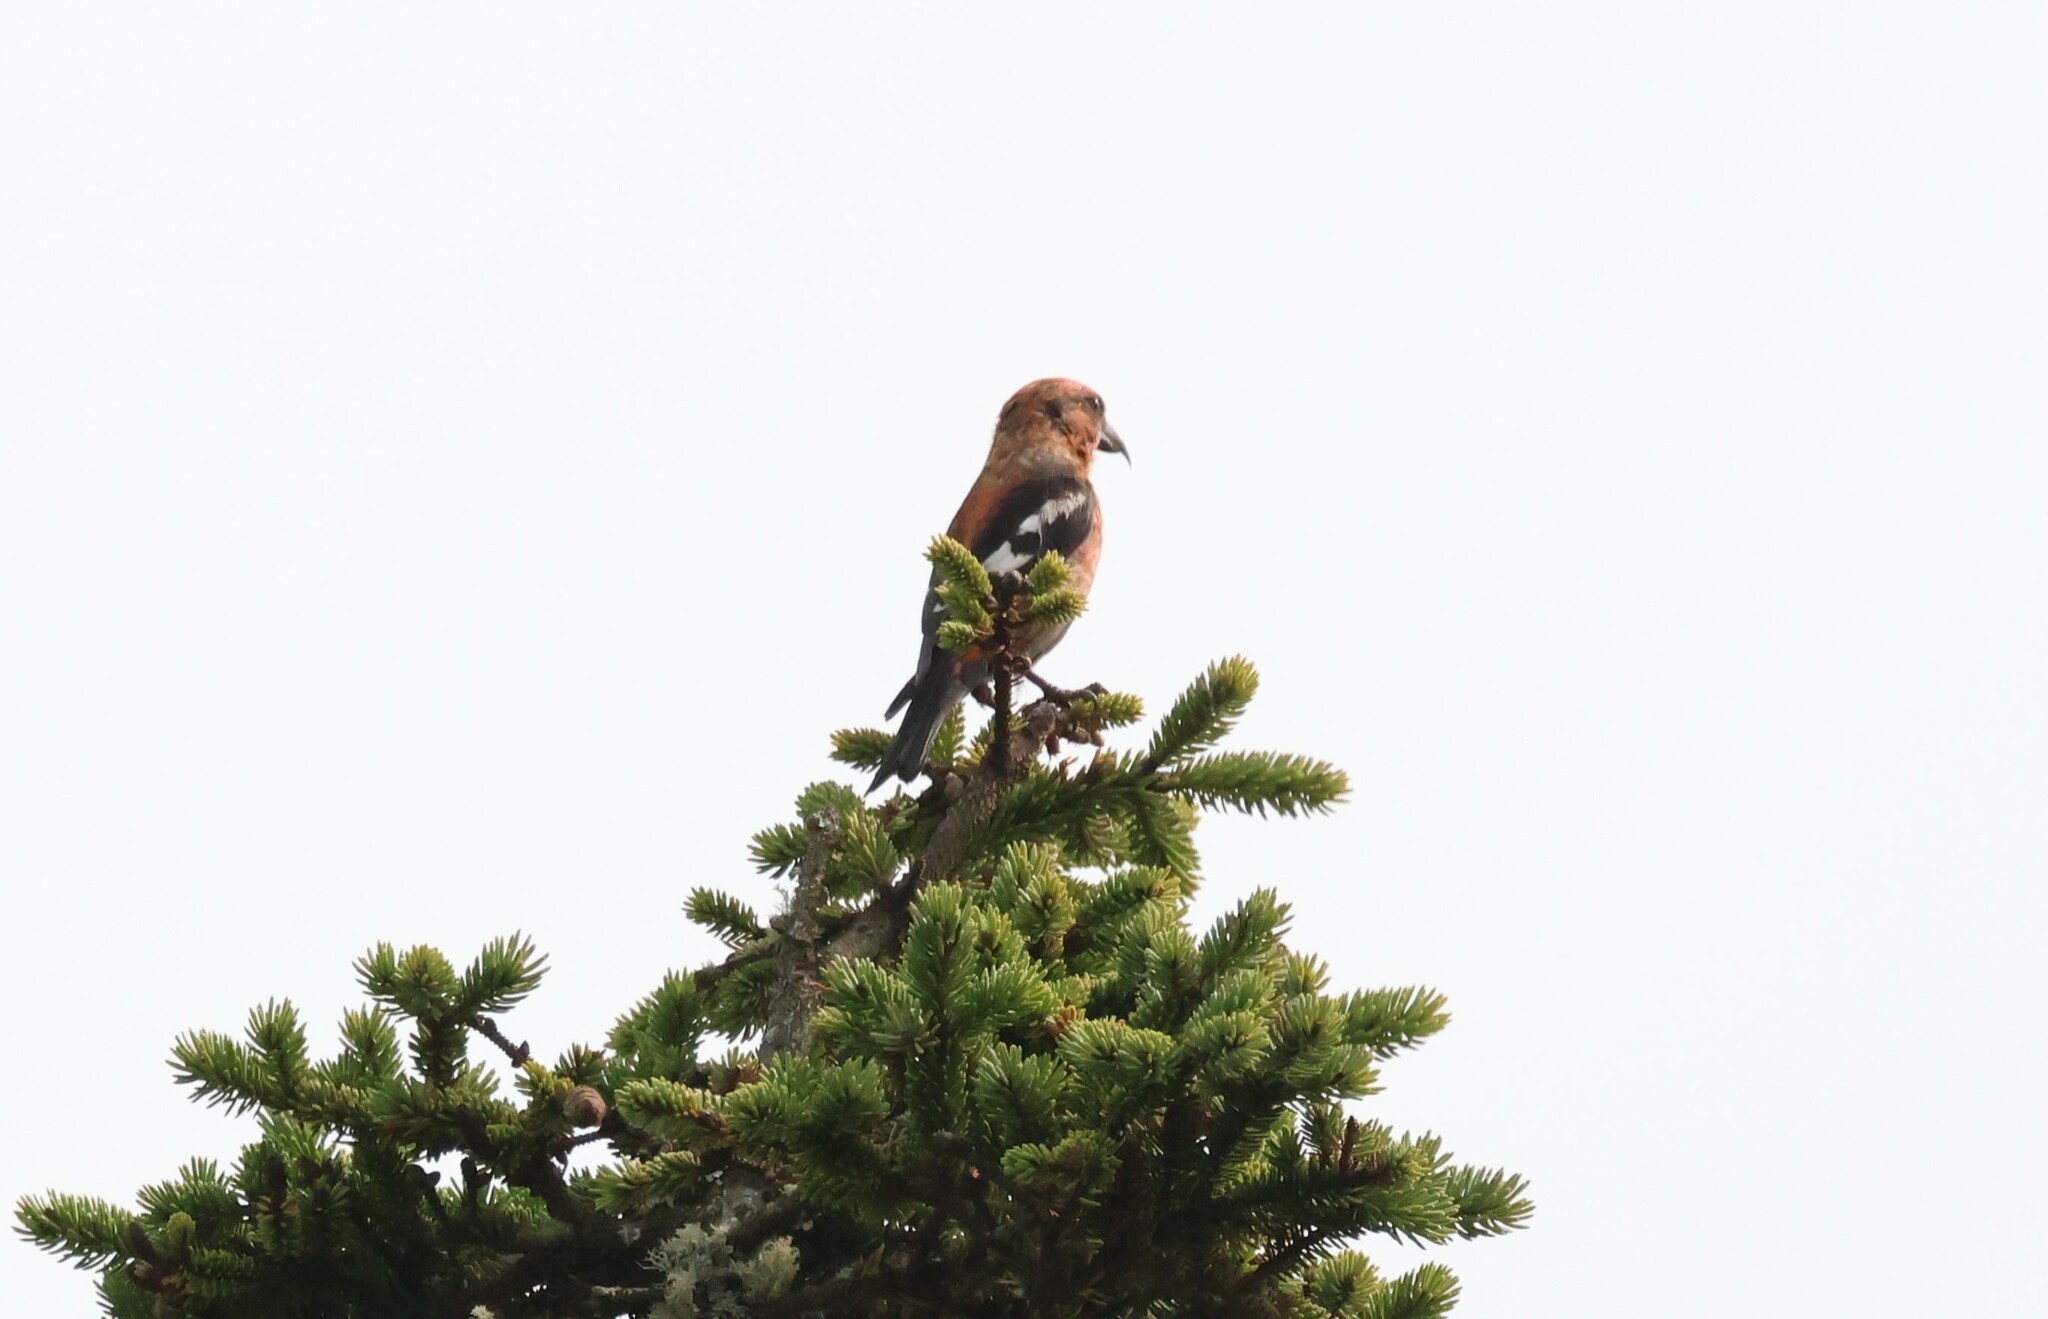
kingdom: Animalia
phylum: Chordata
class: Aves
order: Passeriformes
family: Fringillidae
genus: Loxia
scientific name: Loxia leucoptera
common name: Two-barred crossbill
